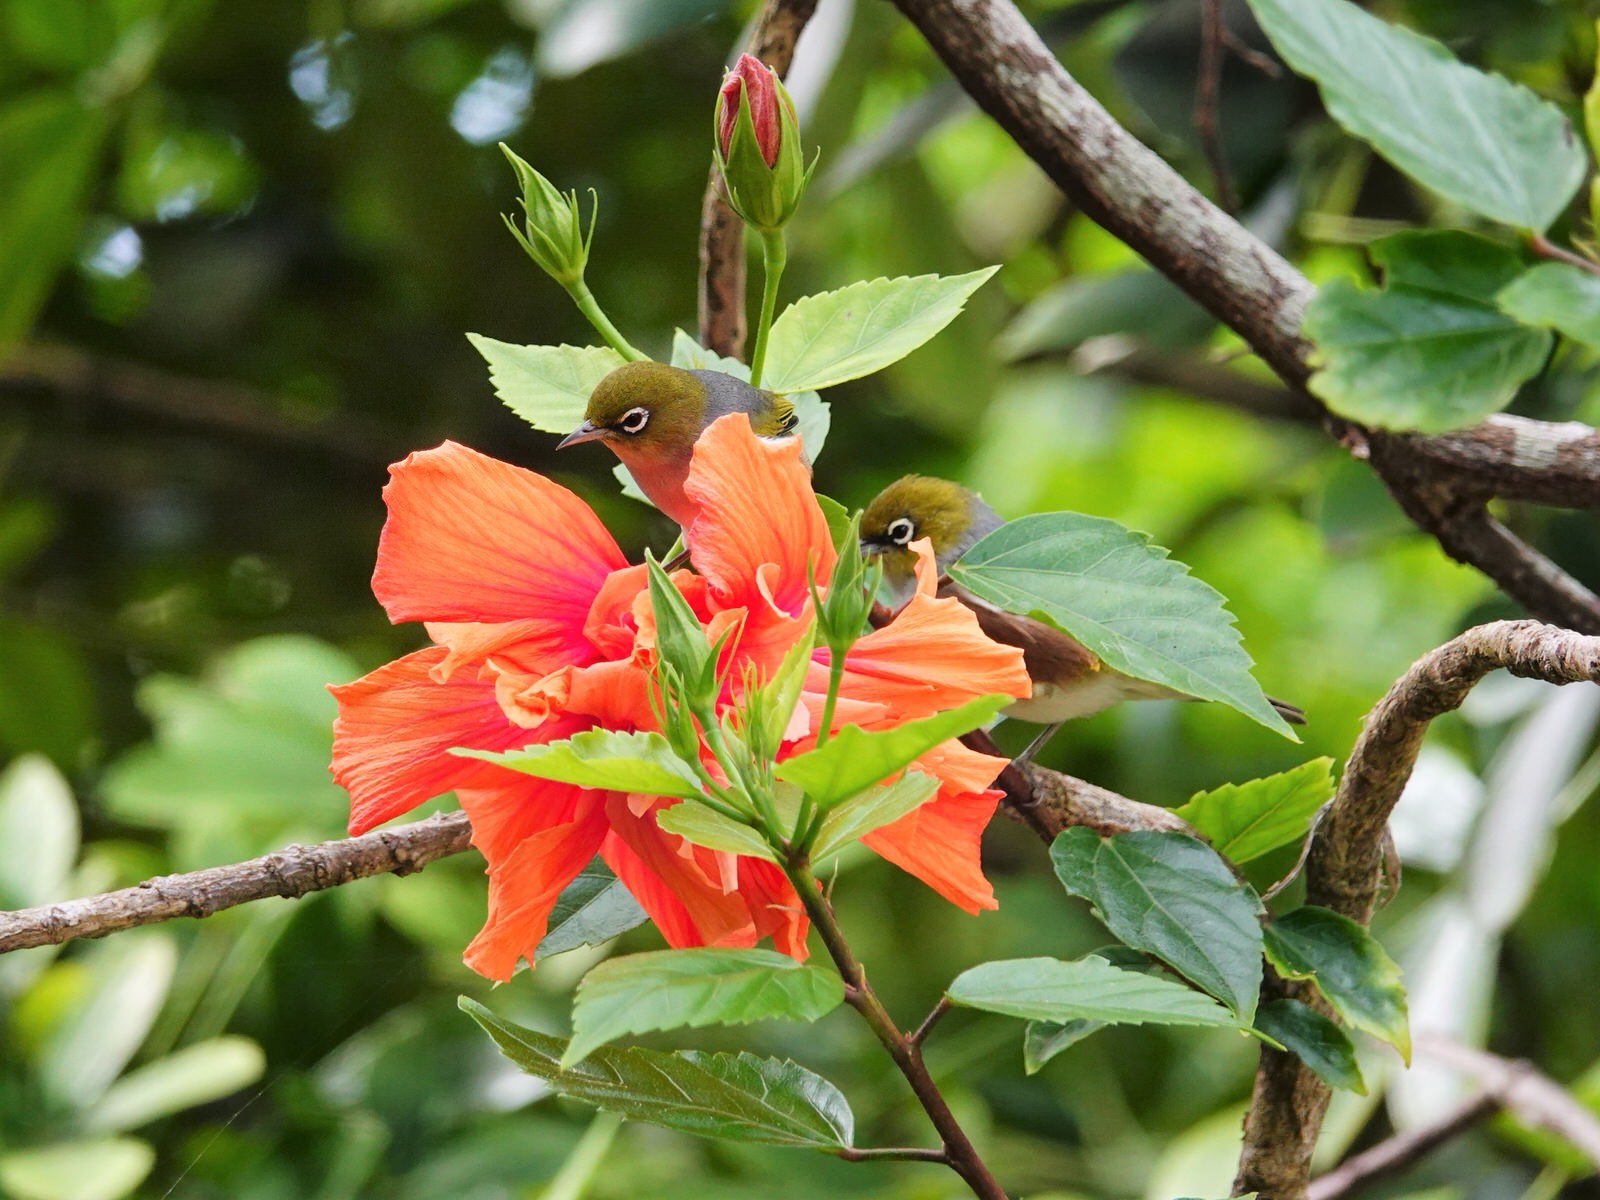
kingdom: Animalia
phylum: Chordata
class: Aves
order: Passeriformes
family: Zosteropidae
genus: Zosterops
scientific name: Zosterops lateralis
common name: Silvereye
